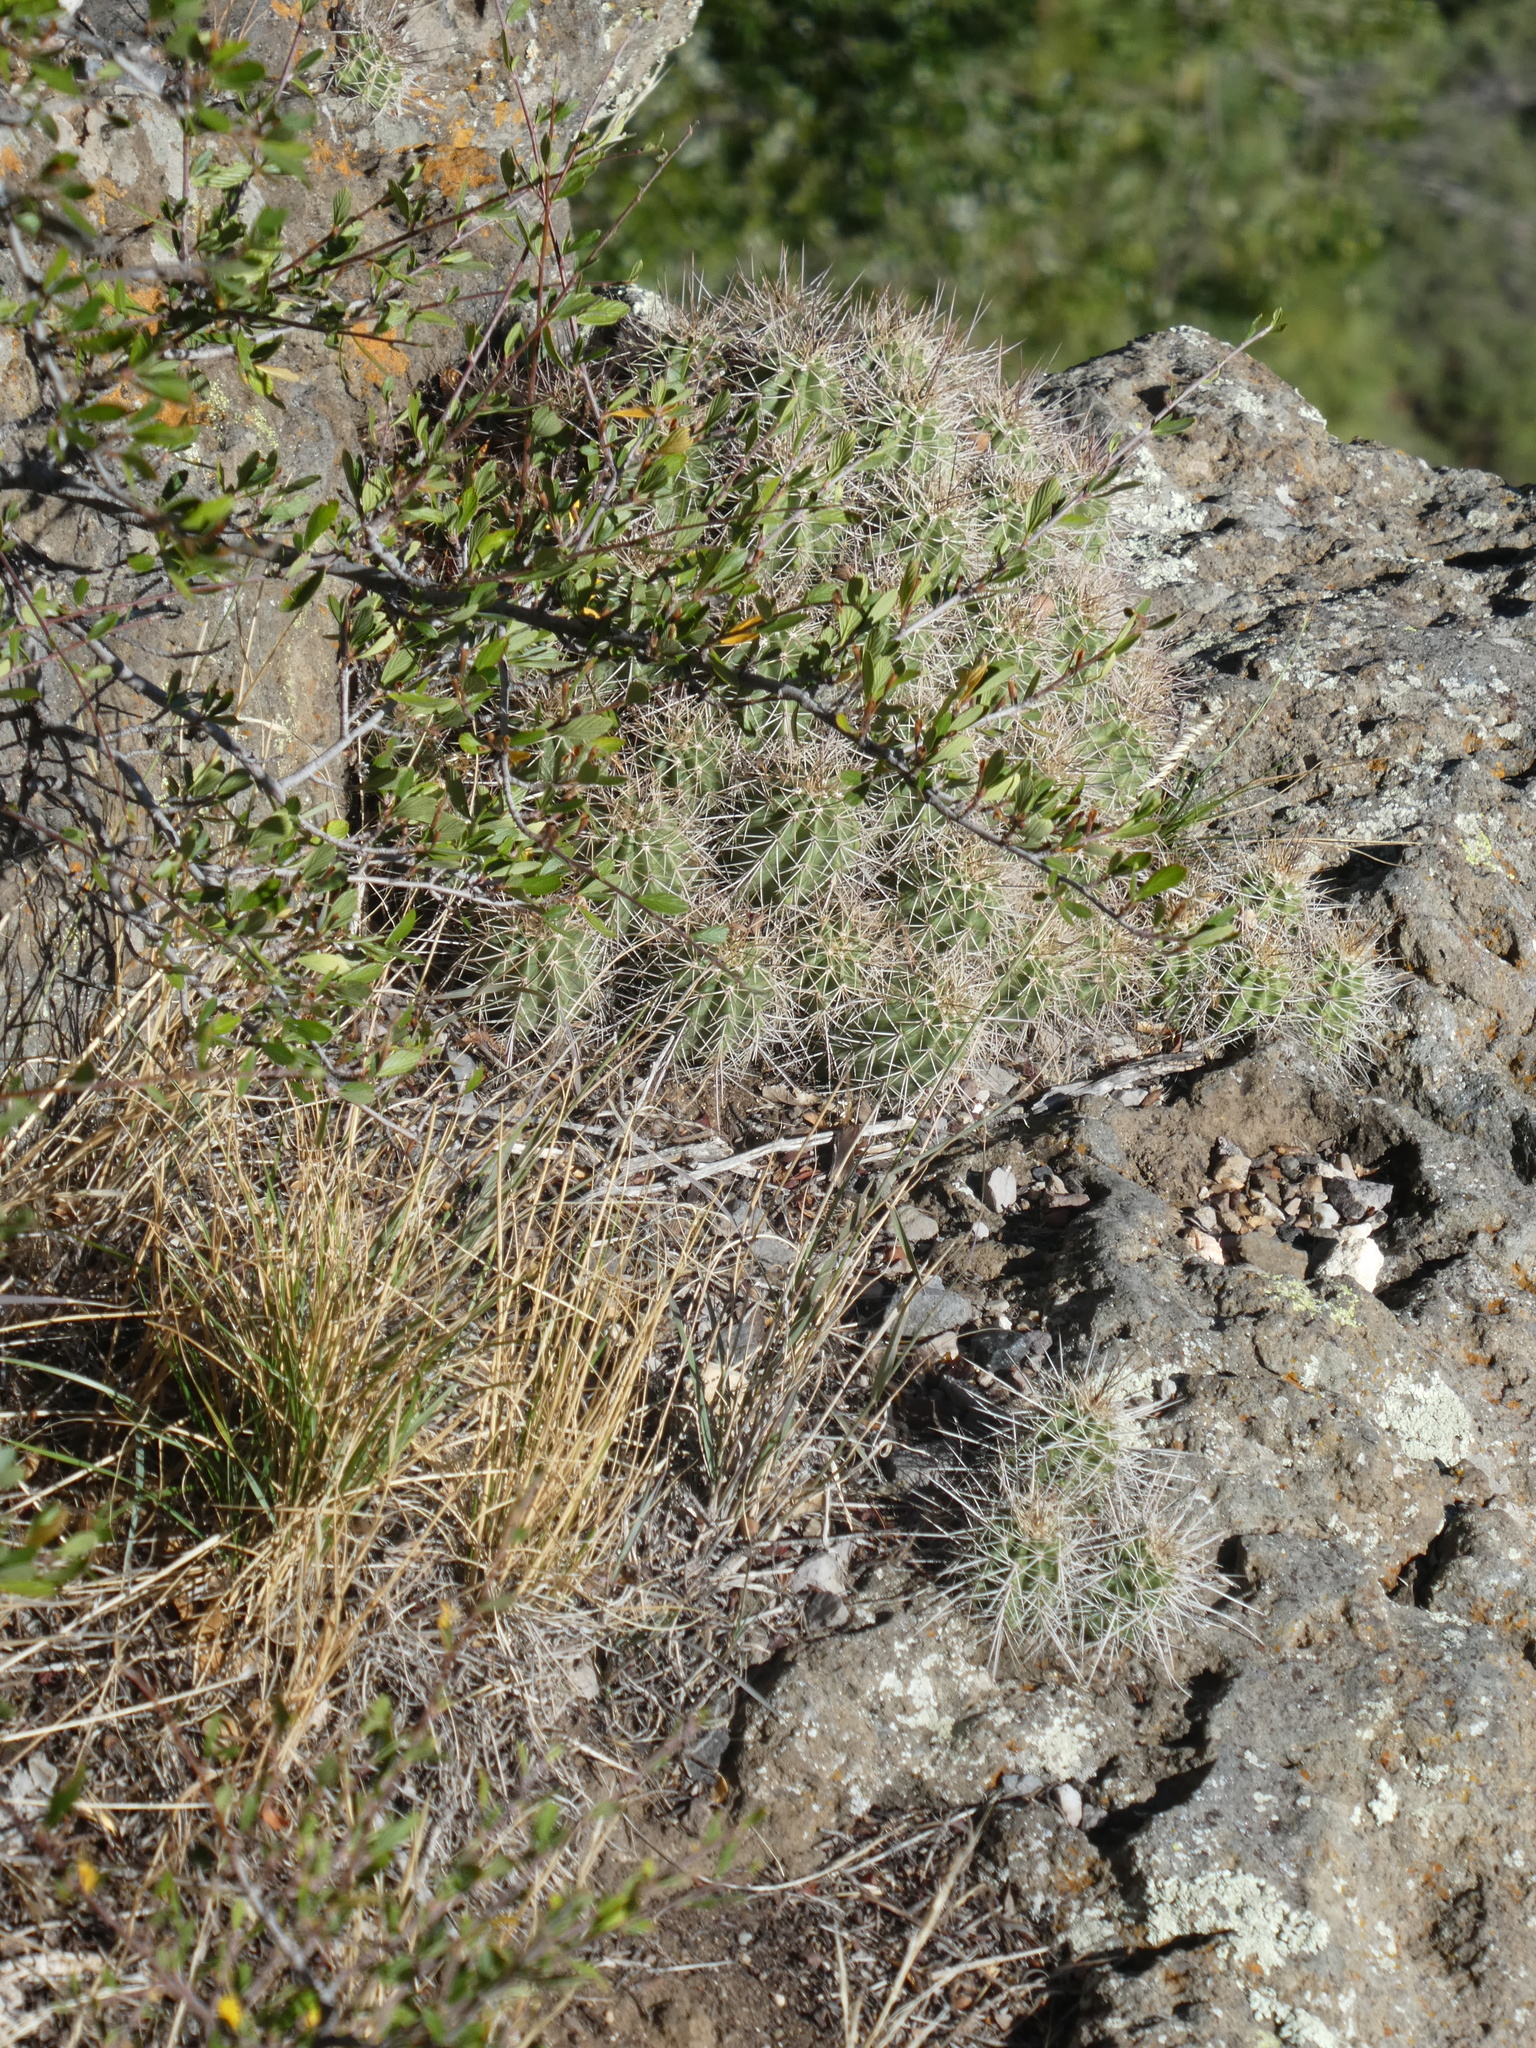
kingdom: Plantae
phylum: Tracheophyta
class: Magnoliopsida
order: Caryophyllales
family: Cactaceae
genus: Echinocereus
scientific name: Echinocereus bakeri
